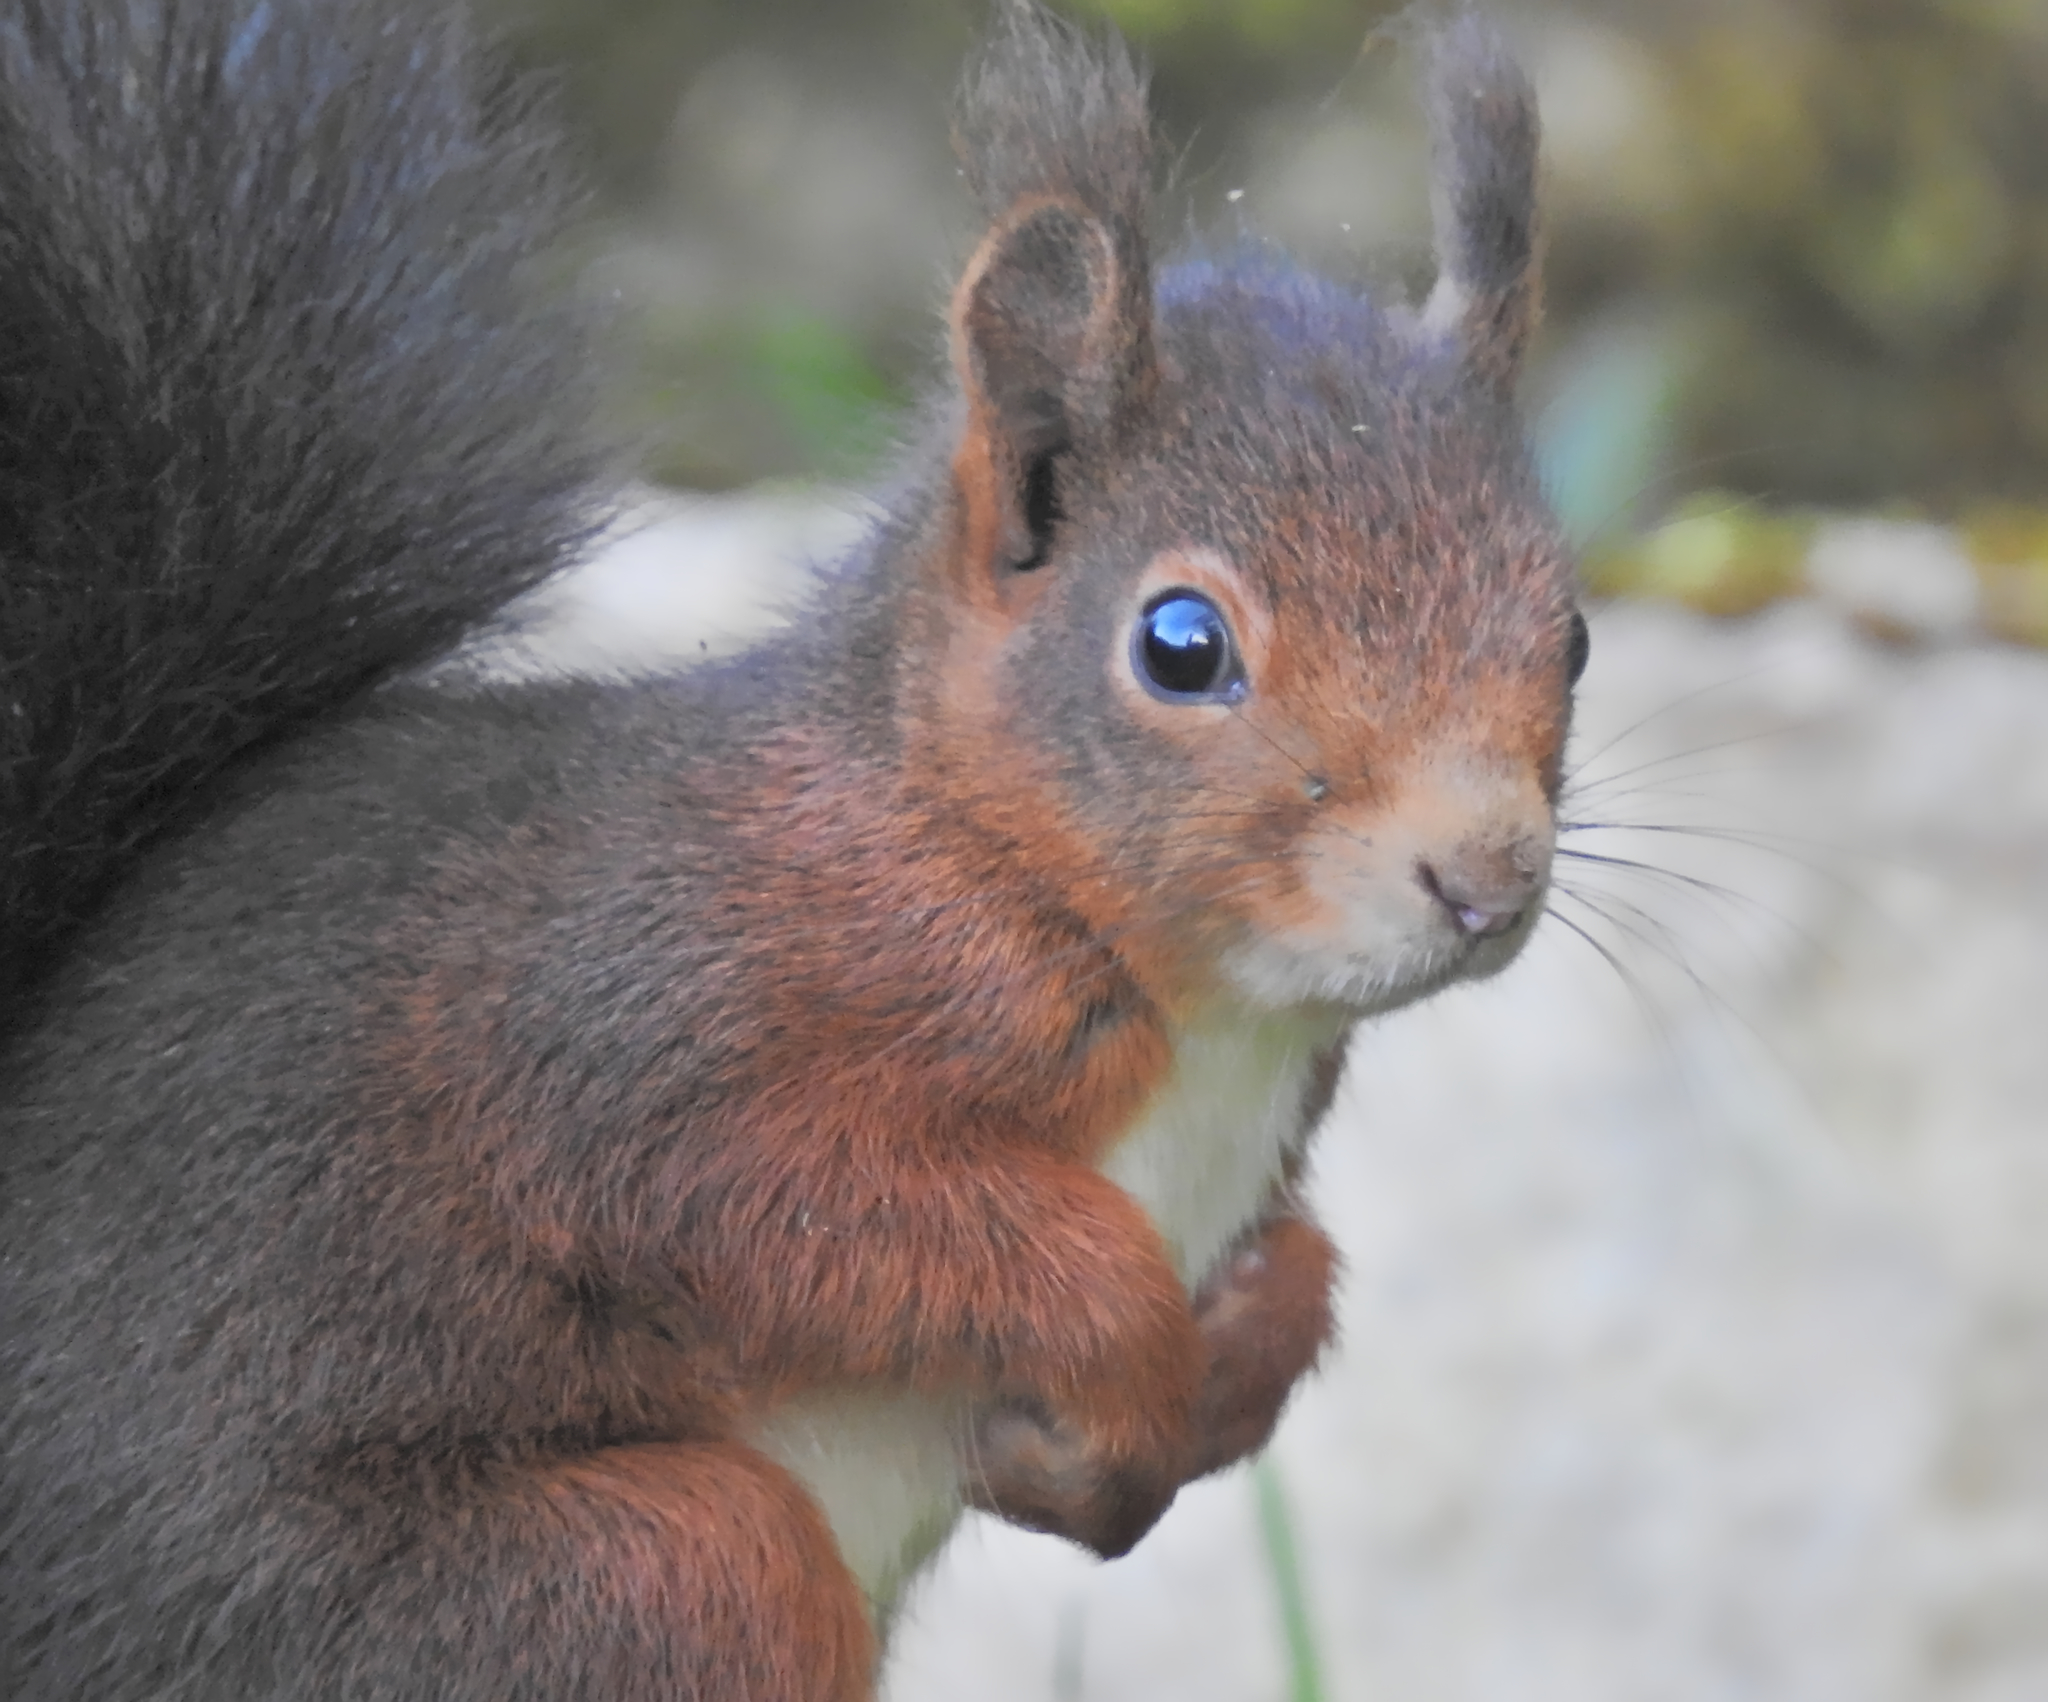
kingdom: Animalia
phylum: Chordata
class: Mammalia
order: Rodentia
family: Sciuridae
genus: Sciurus
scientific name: Sciurus vulgaris
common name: Eurasian red squirrel
